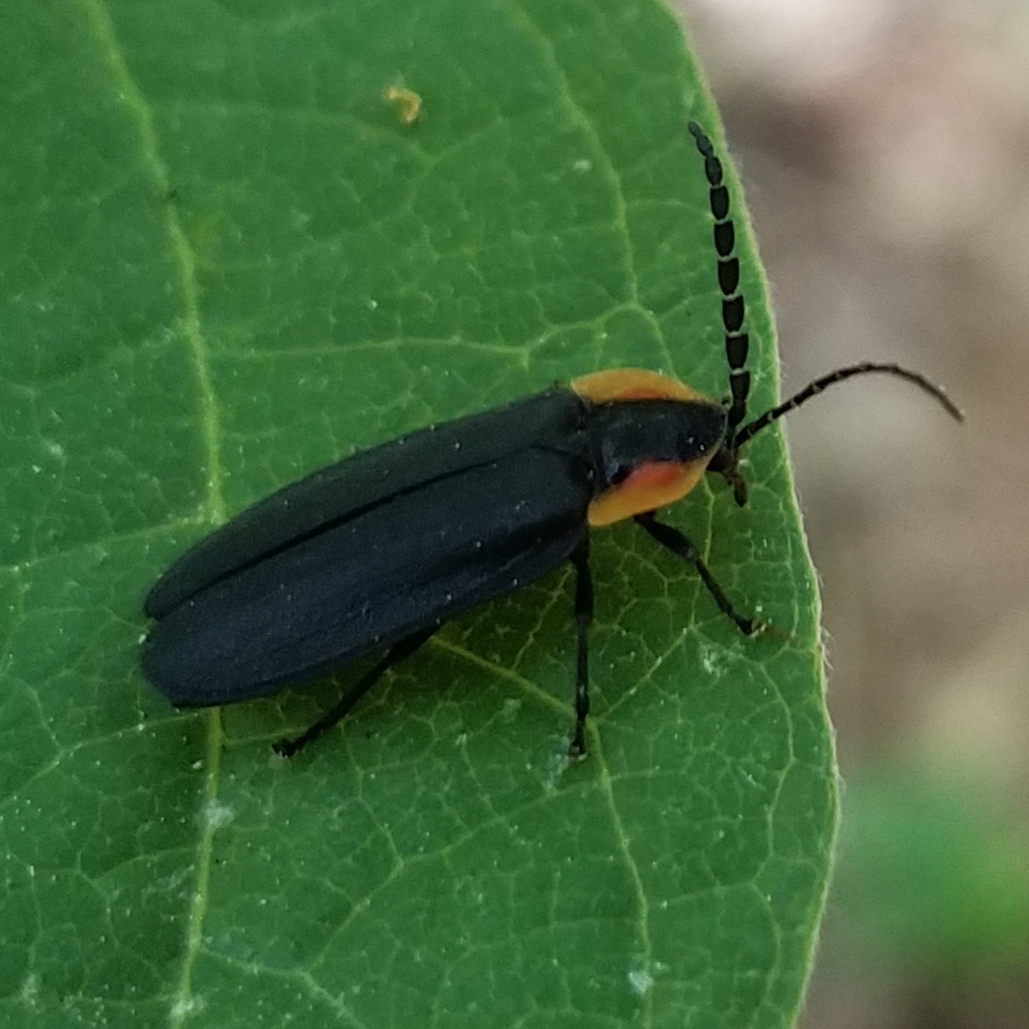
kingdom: Animalia
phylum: Arthropoda
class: Insecta
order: Coleoptera
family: Lampyridae
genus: Lucidota
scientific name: Lucidota atra
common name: Black firefly
